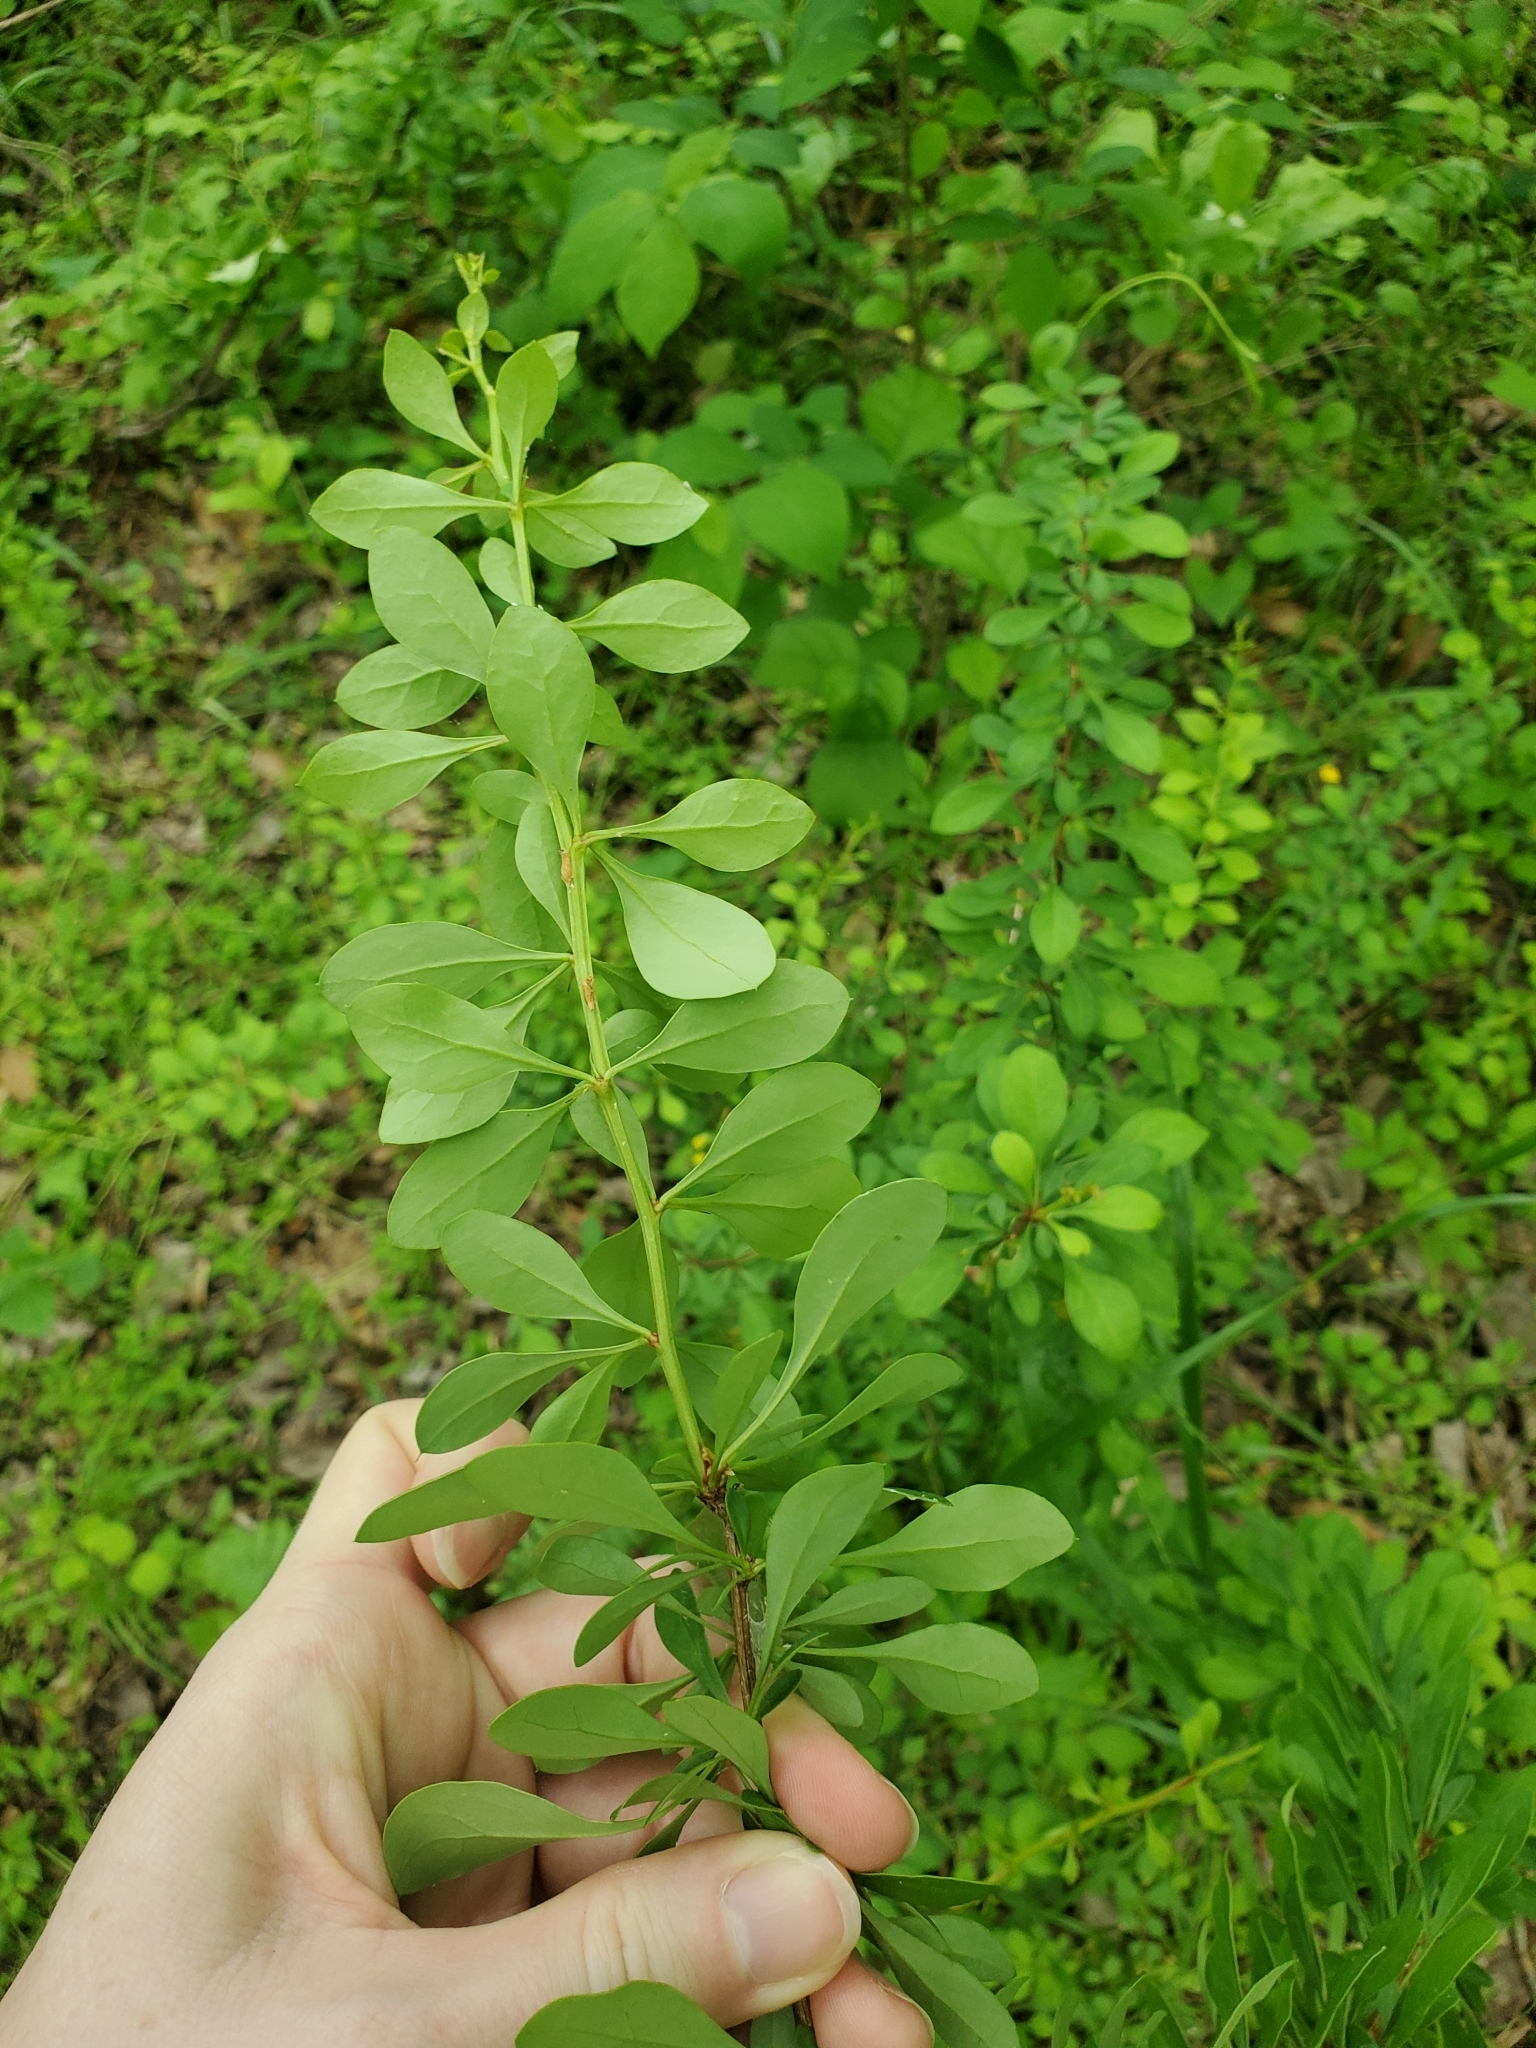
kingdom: Plantae
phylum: Tracheophyta
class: Magnoliopsida
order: Ranunculales
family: Berberidaceae
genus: Berberis
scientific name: Berberis thunbergii
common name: Japanese barberry
